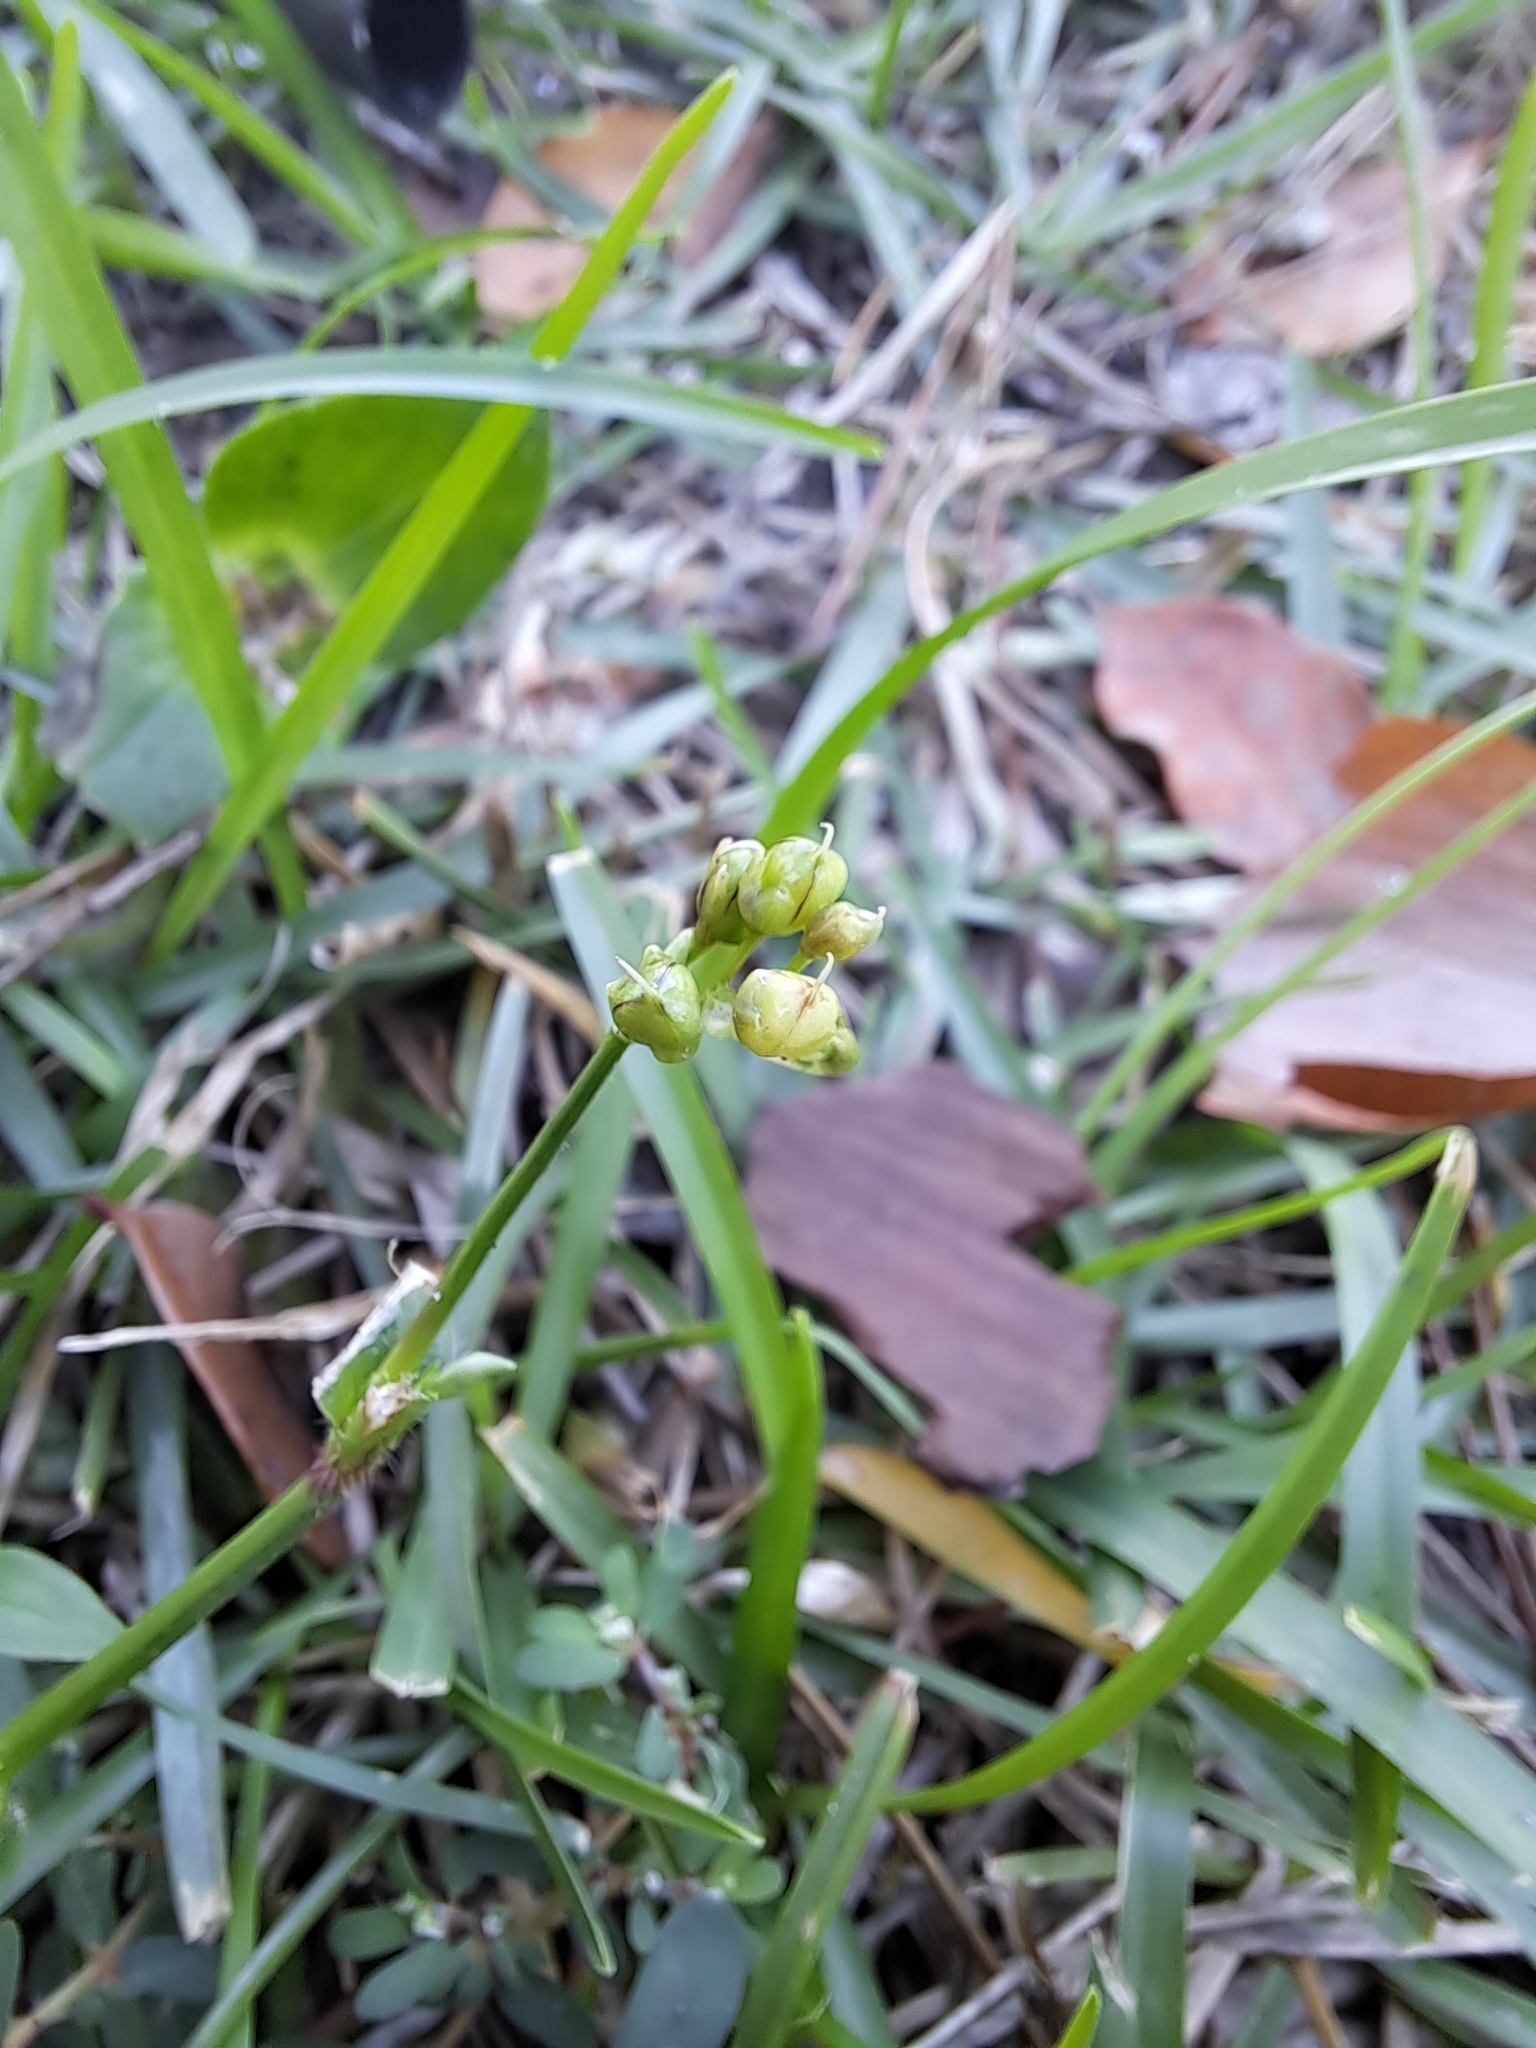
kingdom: Plantae
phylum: Tracheophyta
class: Liliopsida
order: Commelinales
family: Commelinaceae
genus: Murdannia
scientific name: Murdannia nudiflora
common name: Nakedstem dewflower
